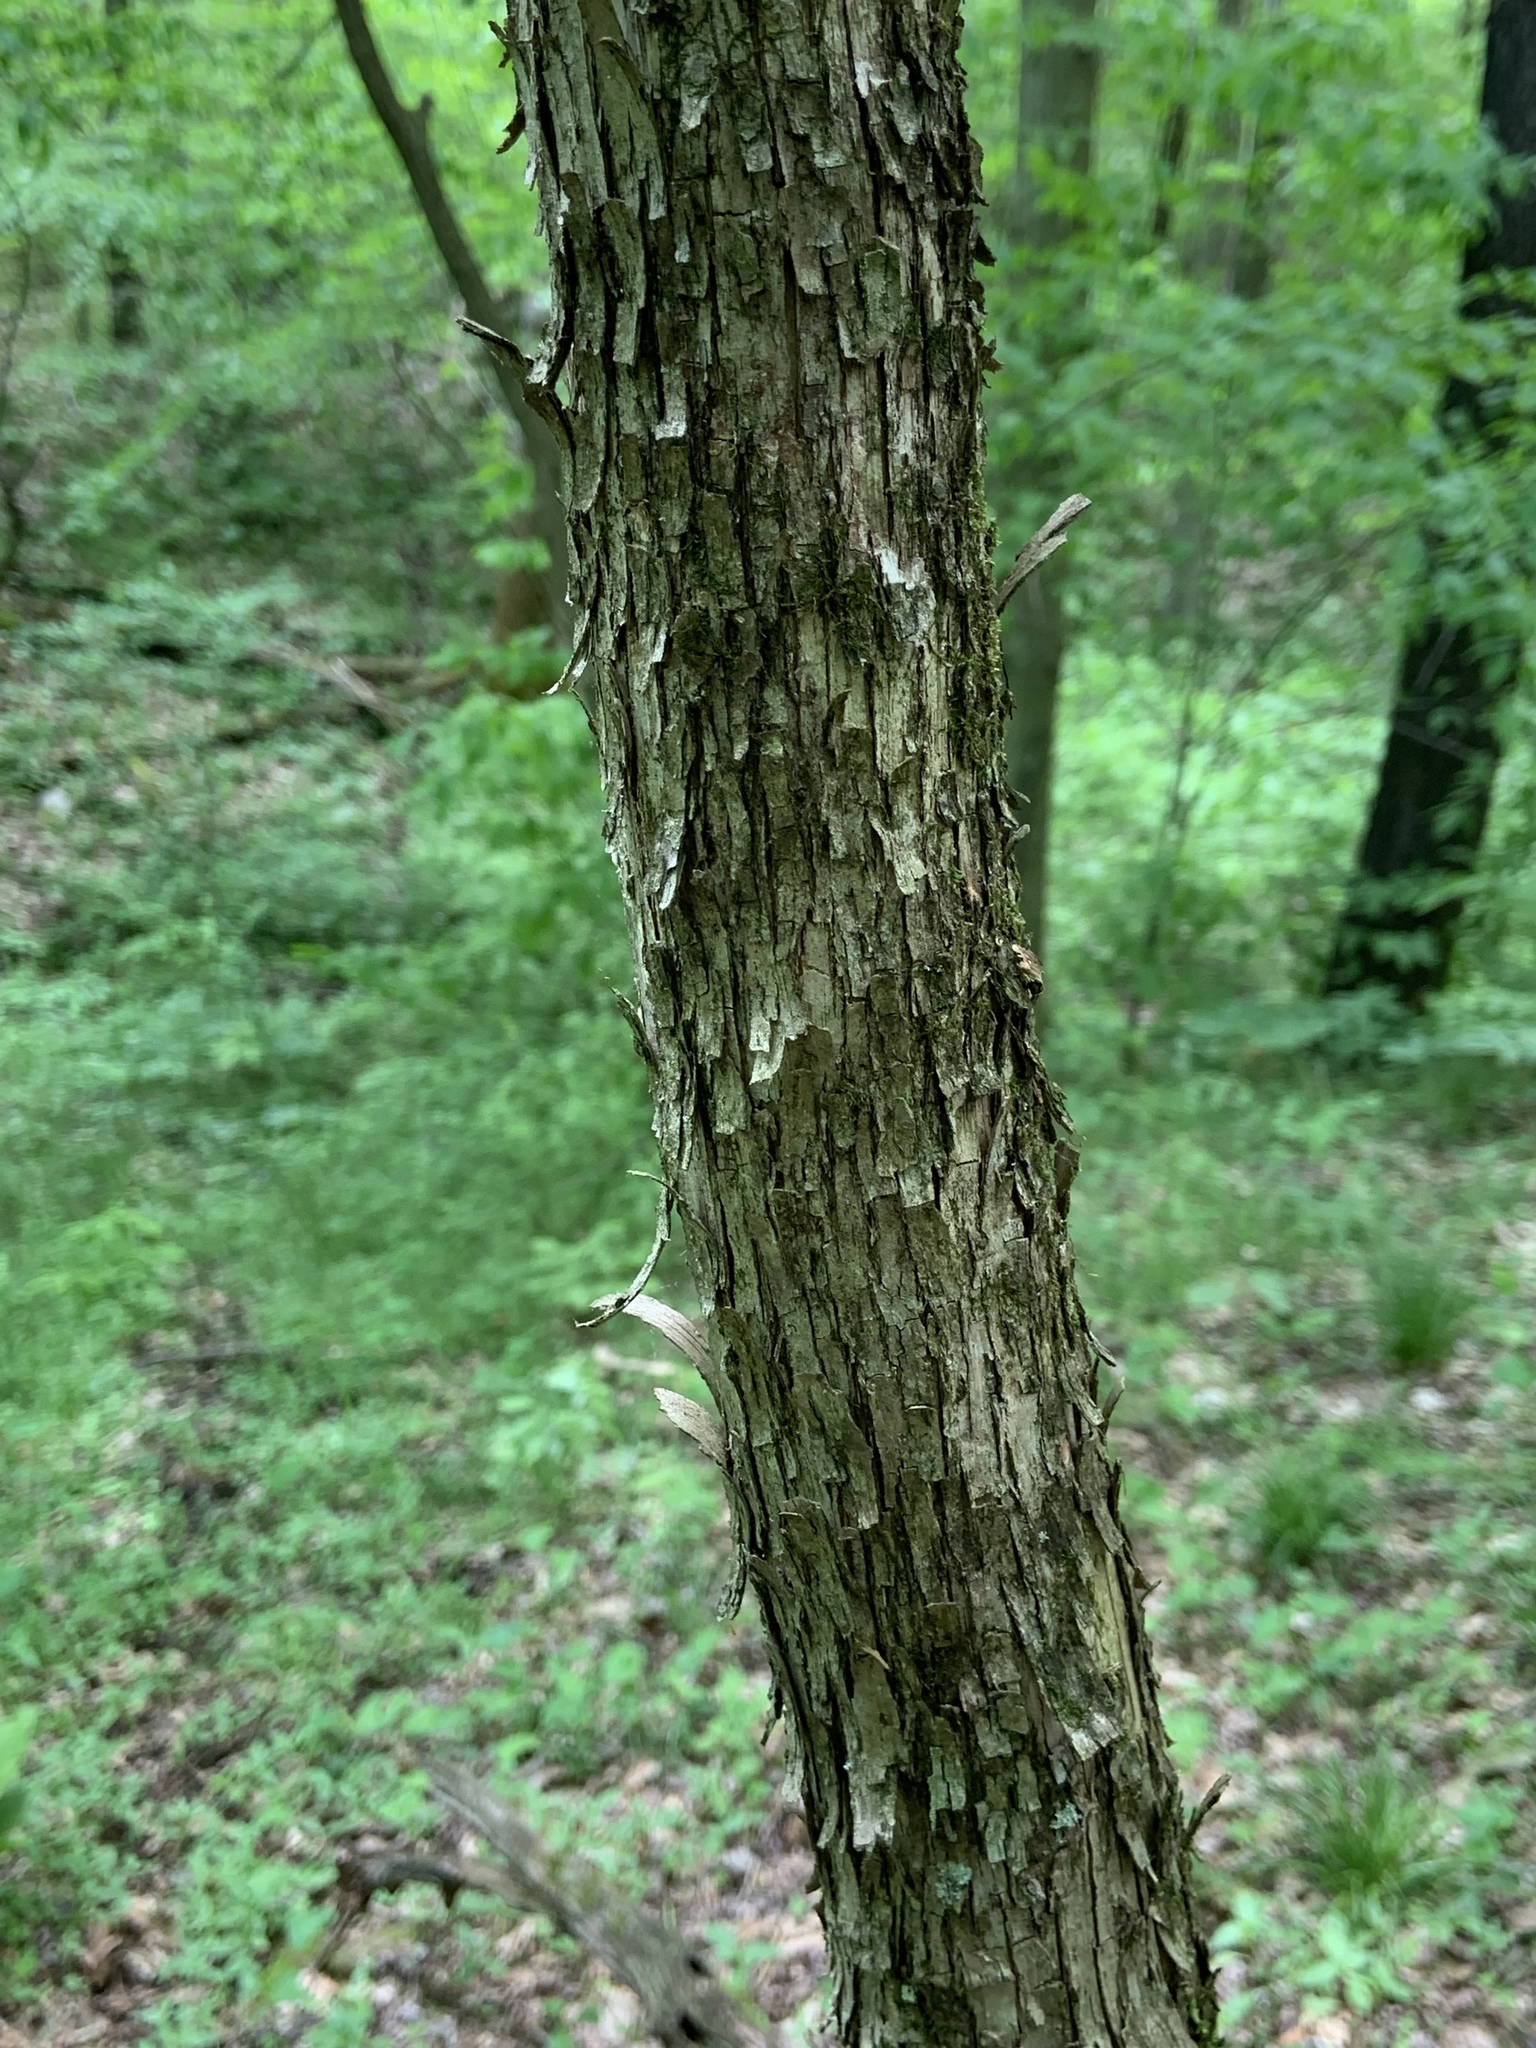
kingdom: Plantae
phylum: Tracheophyta
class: Magnoliopsida
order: Fagales
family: Betulaceae
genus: Ostrya
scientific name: Ostrya virginiana
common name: Ironwood
